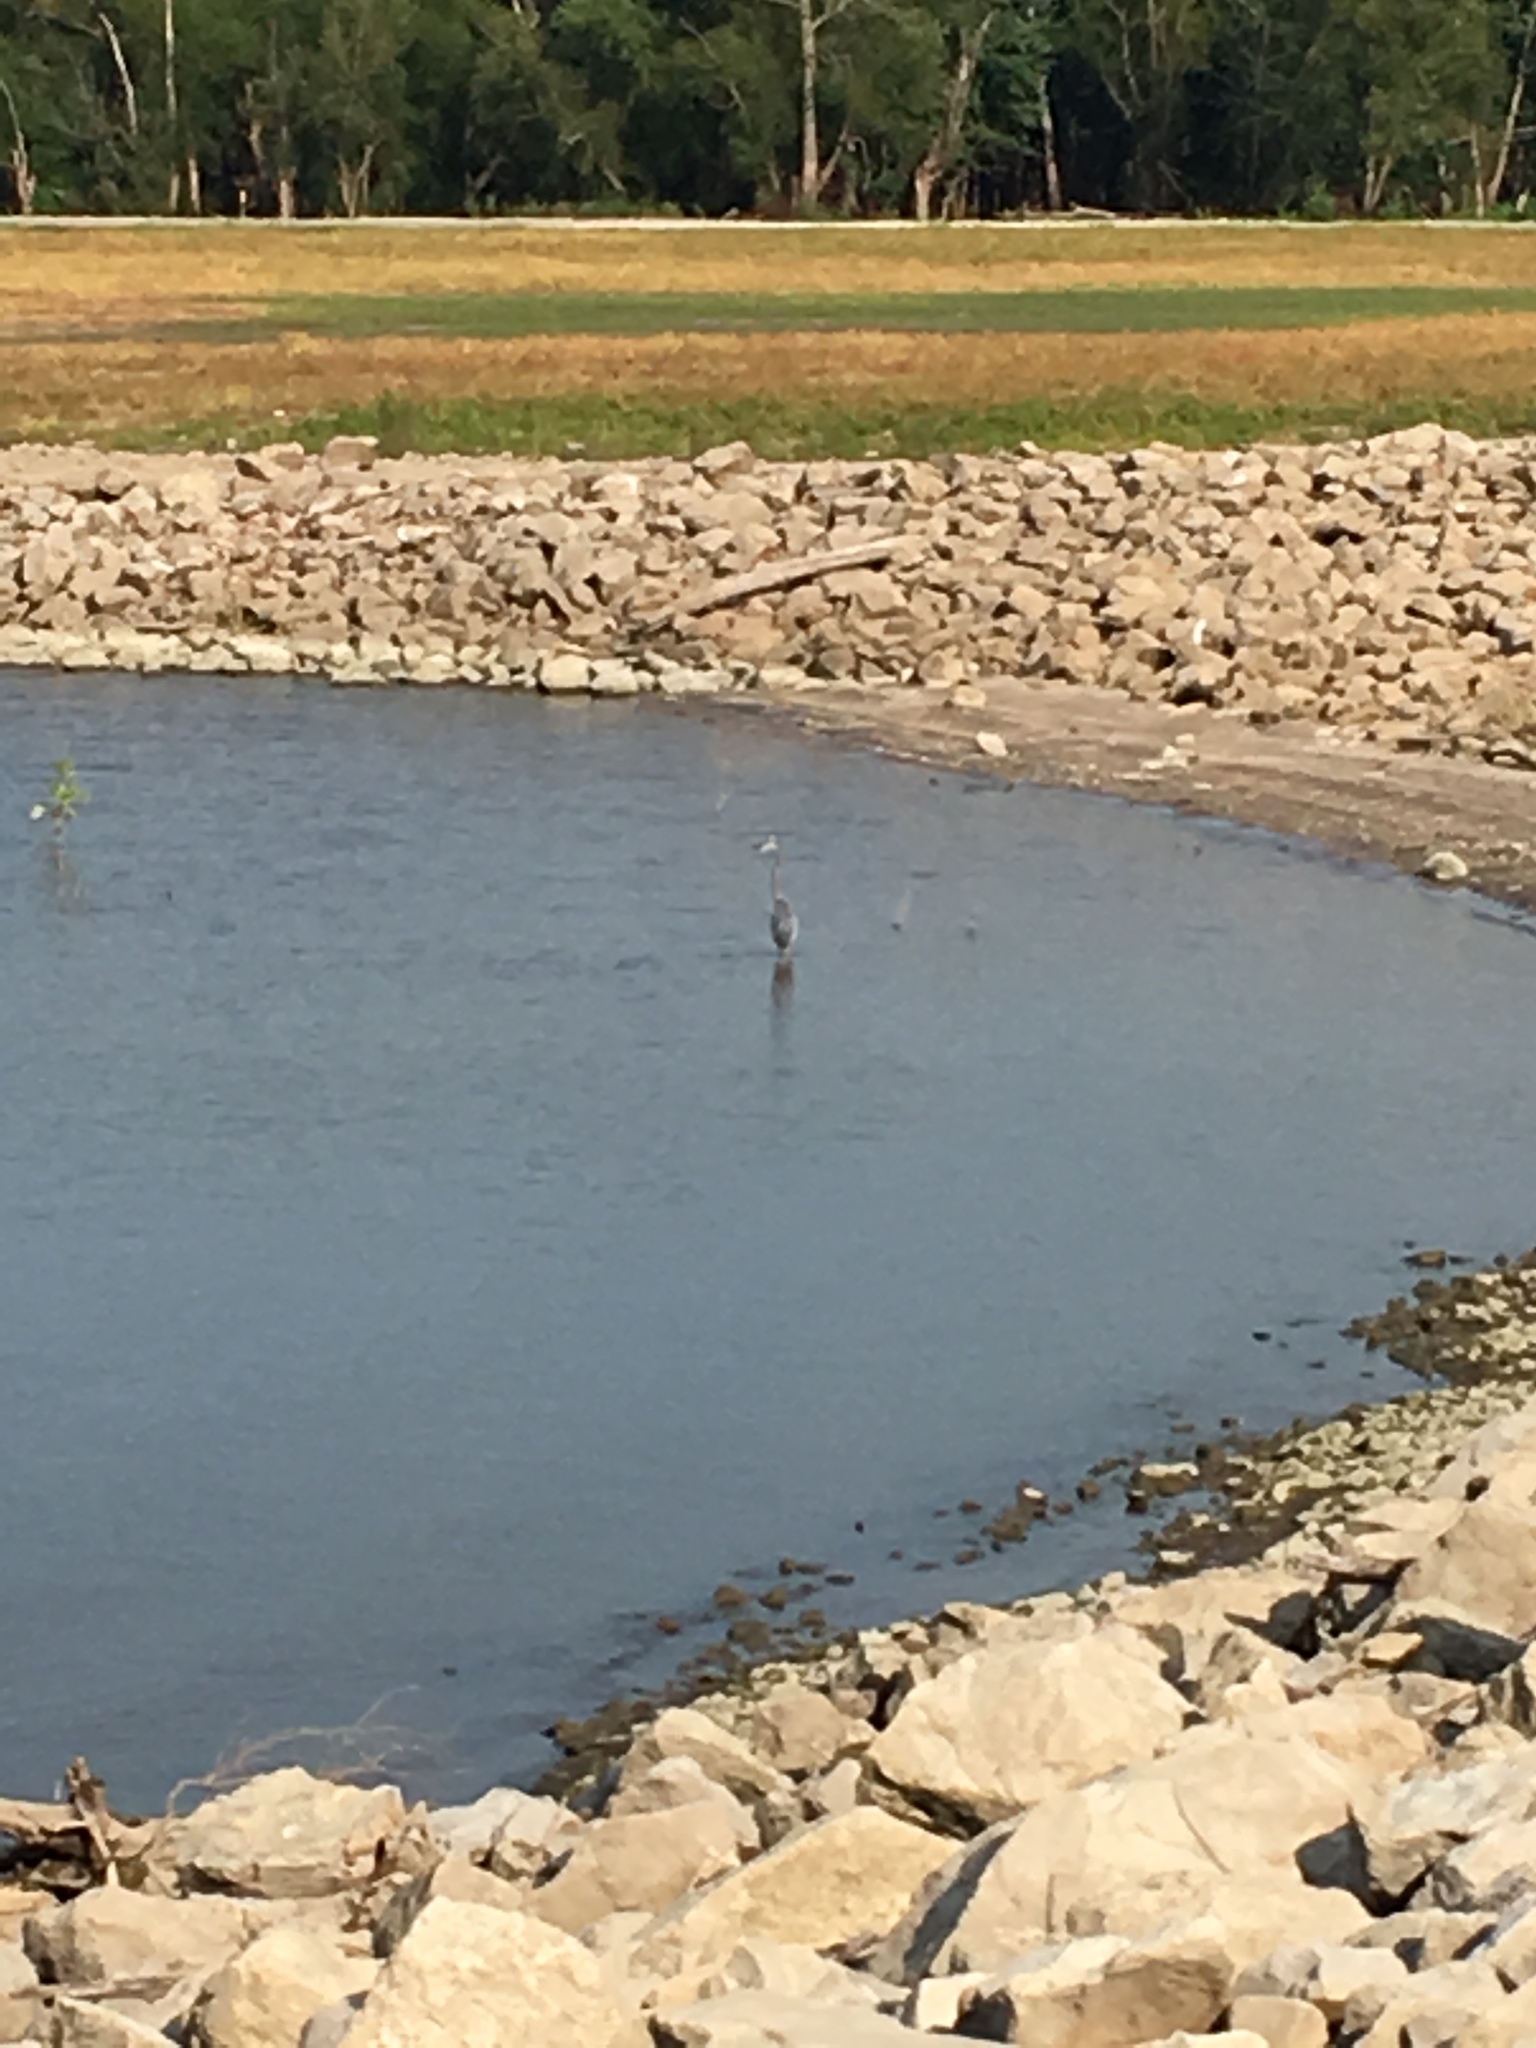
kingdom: Animalia
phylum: Chordata
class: Aves
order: Pelecaniformes
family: Ardeidae
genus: Ardea
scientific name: Ardea herodias
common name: Great blue heron
